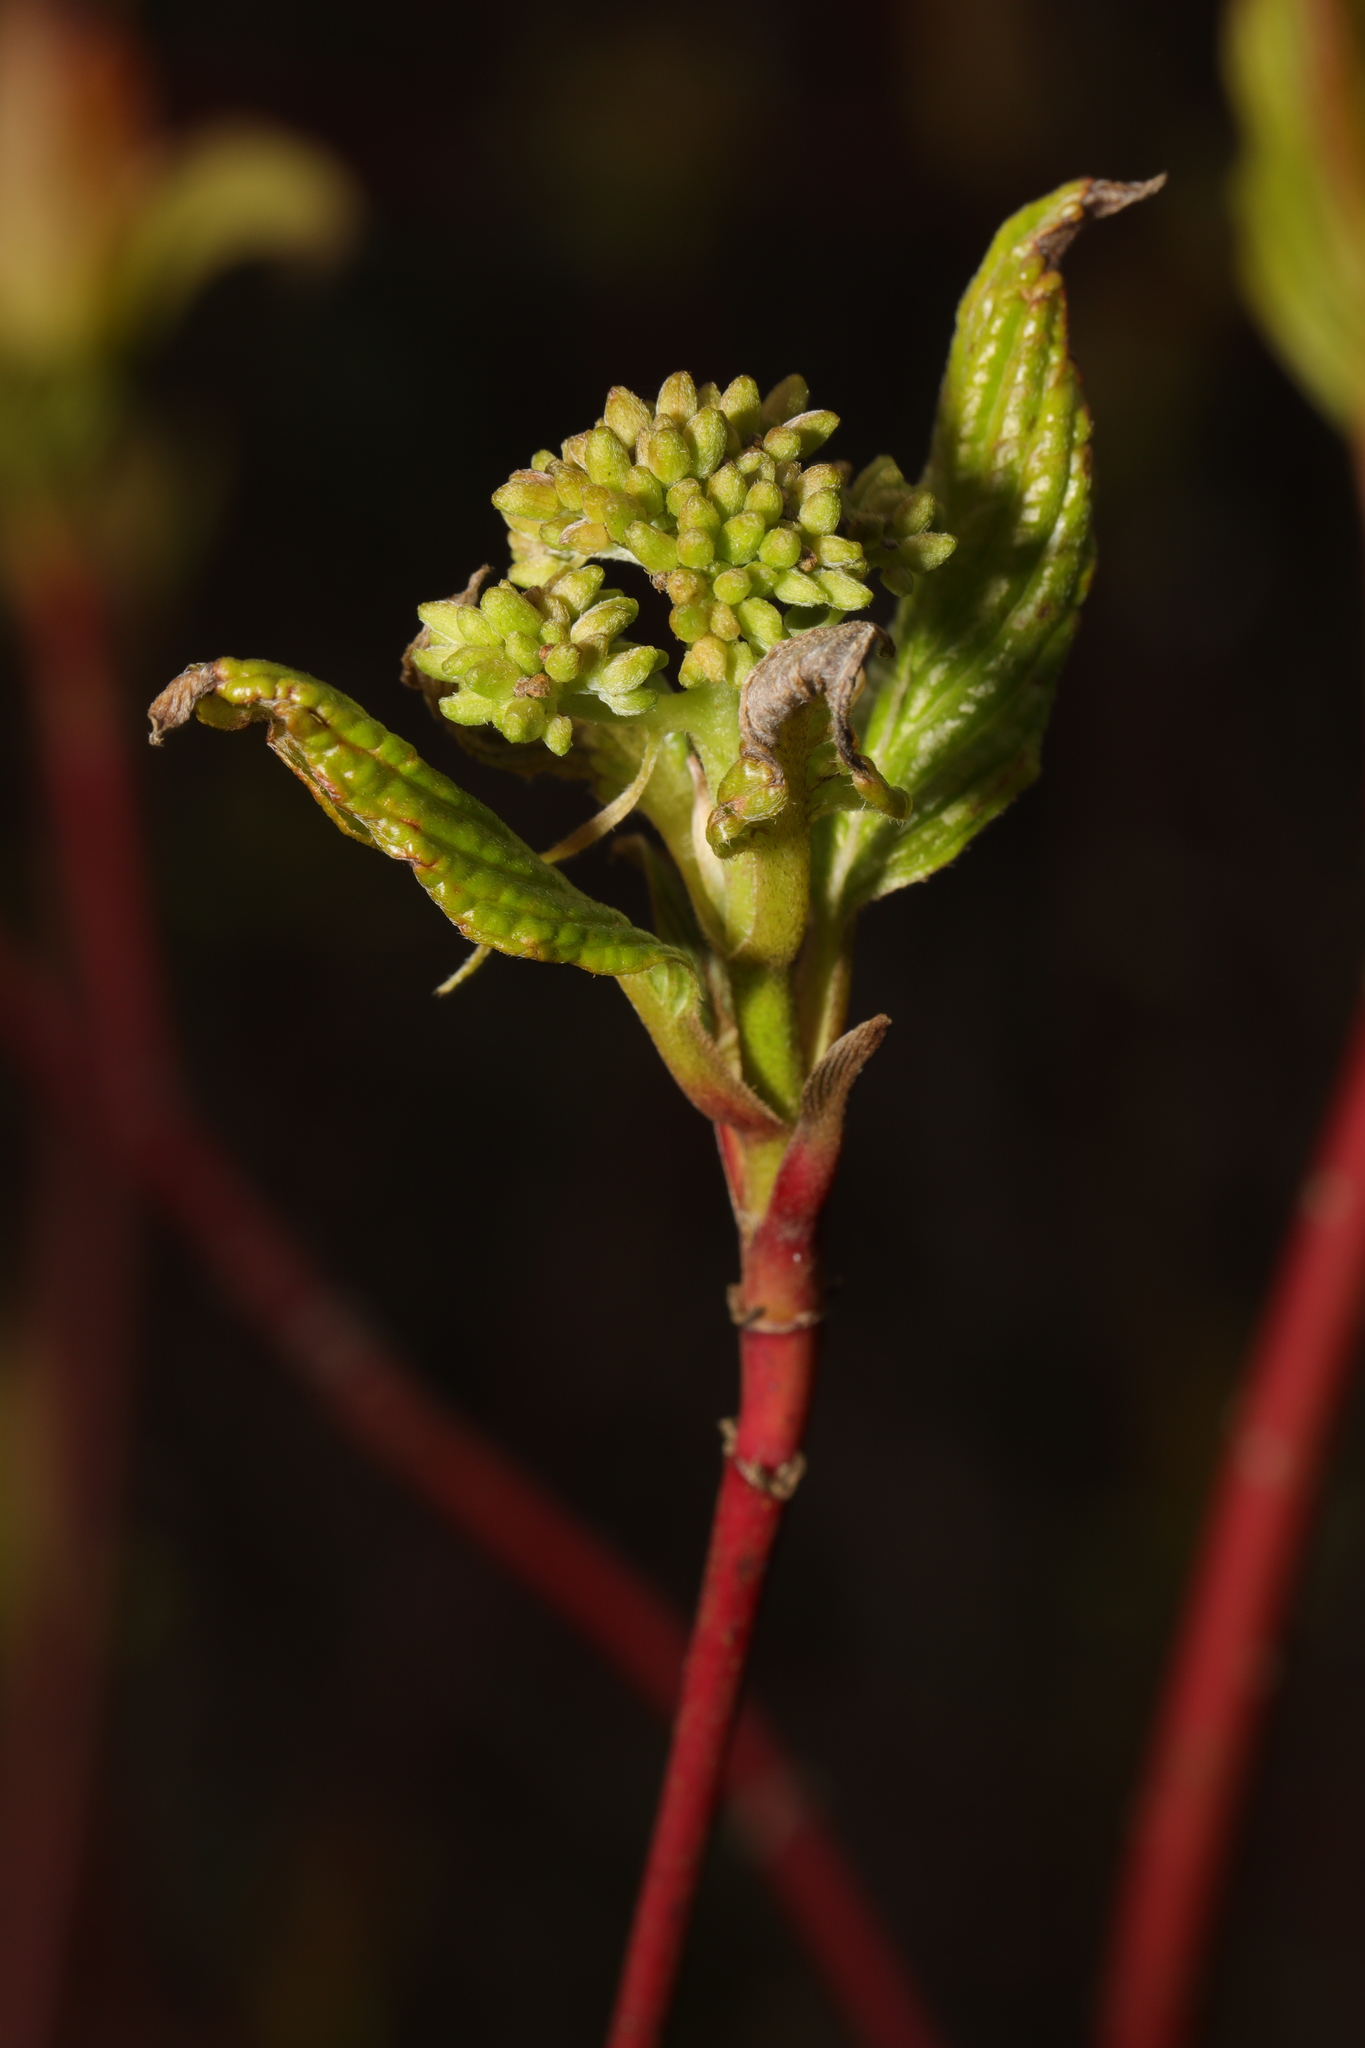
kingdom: Plantae
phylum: Tracheophyta
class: Magnoliopsida
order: Cornales
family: Cornaceae
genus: Cornus
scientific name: Cornus sanguinea
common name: Dogwood
